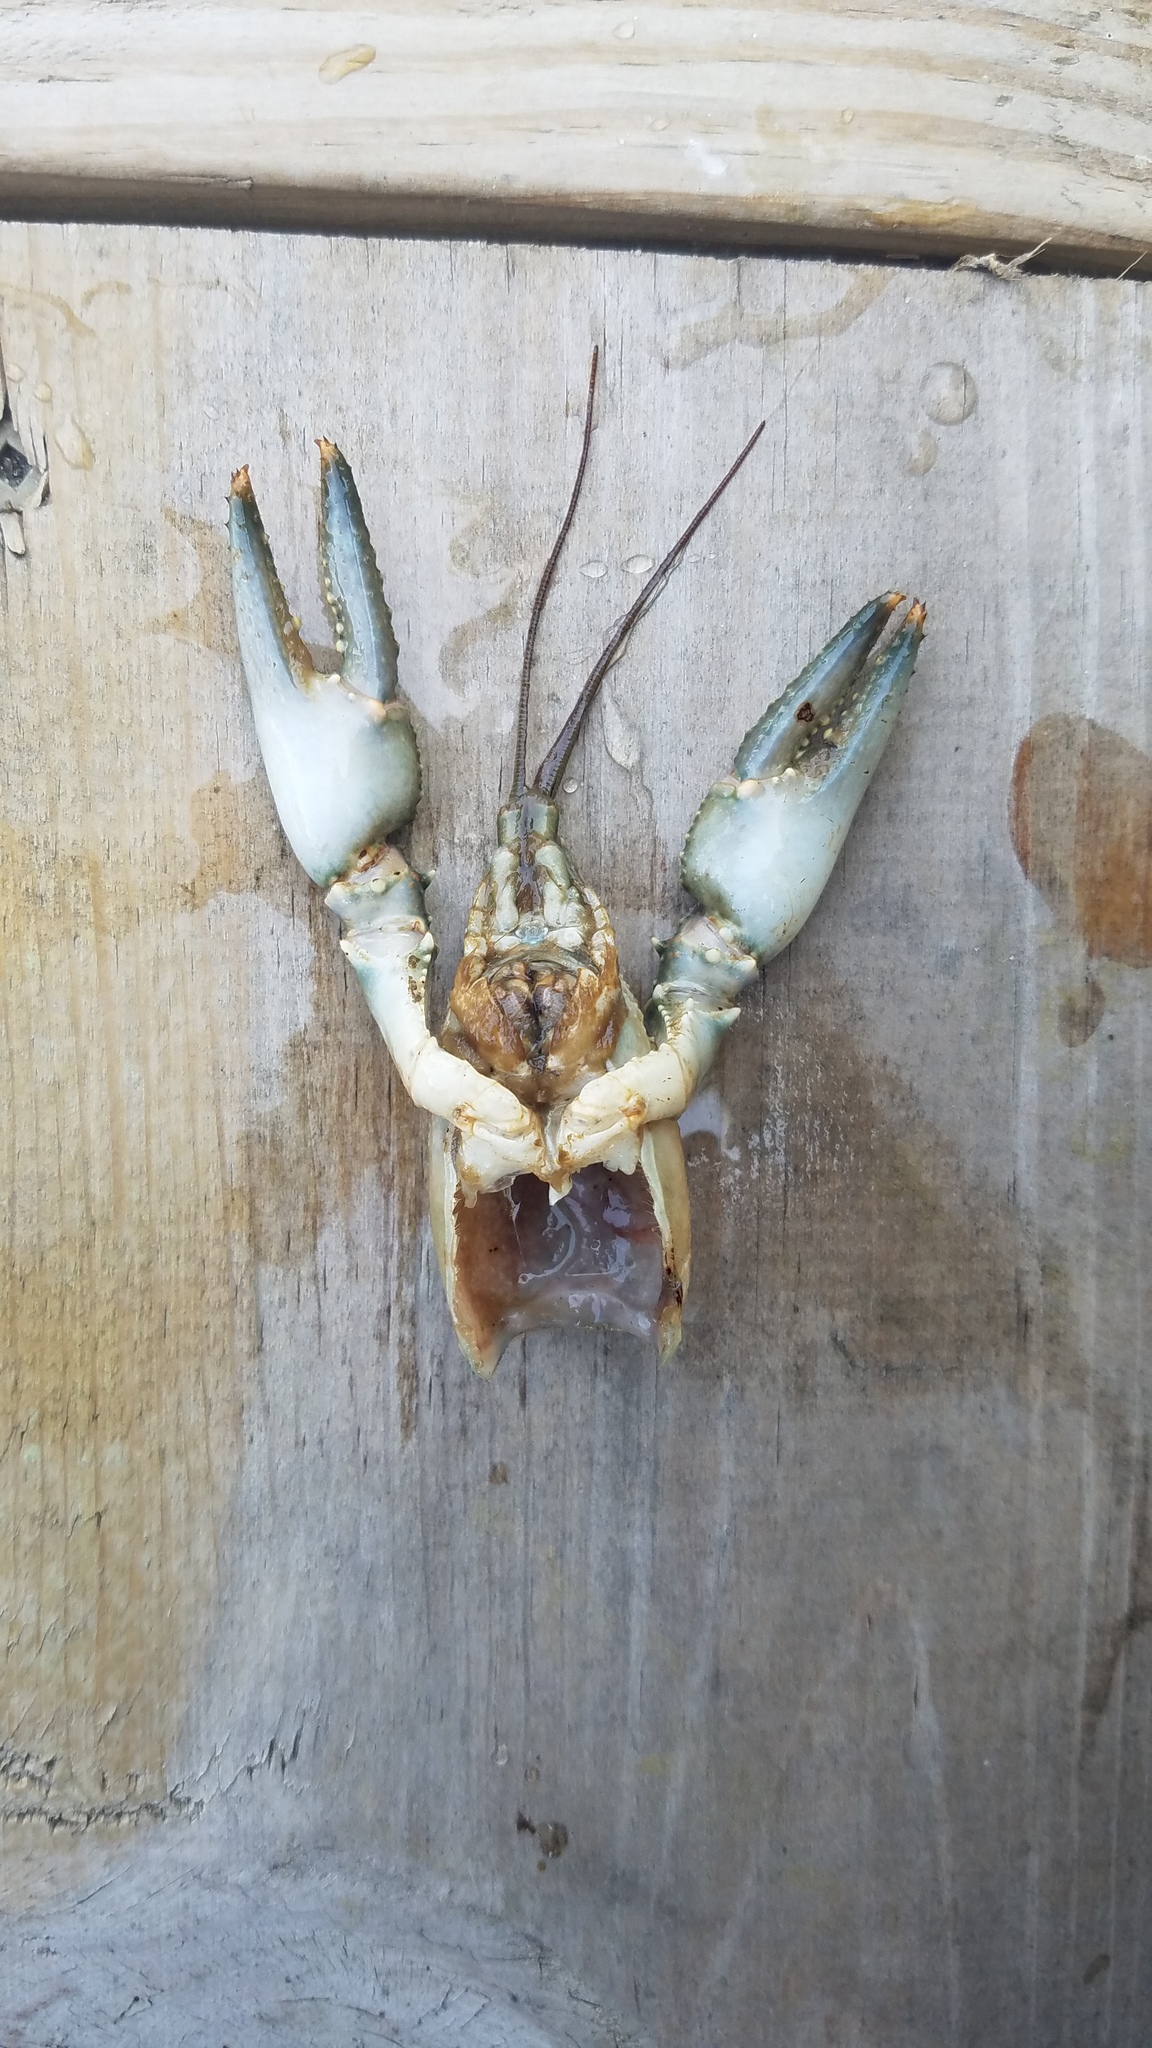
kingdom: Animalia
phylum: Arthropoda
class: Malacostraca
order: Decapoda
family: Cambaridae
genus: Faxonius
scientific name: Faxonius virilis
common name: Virile crayfish
